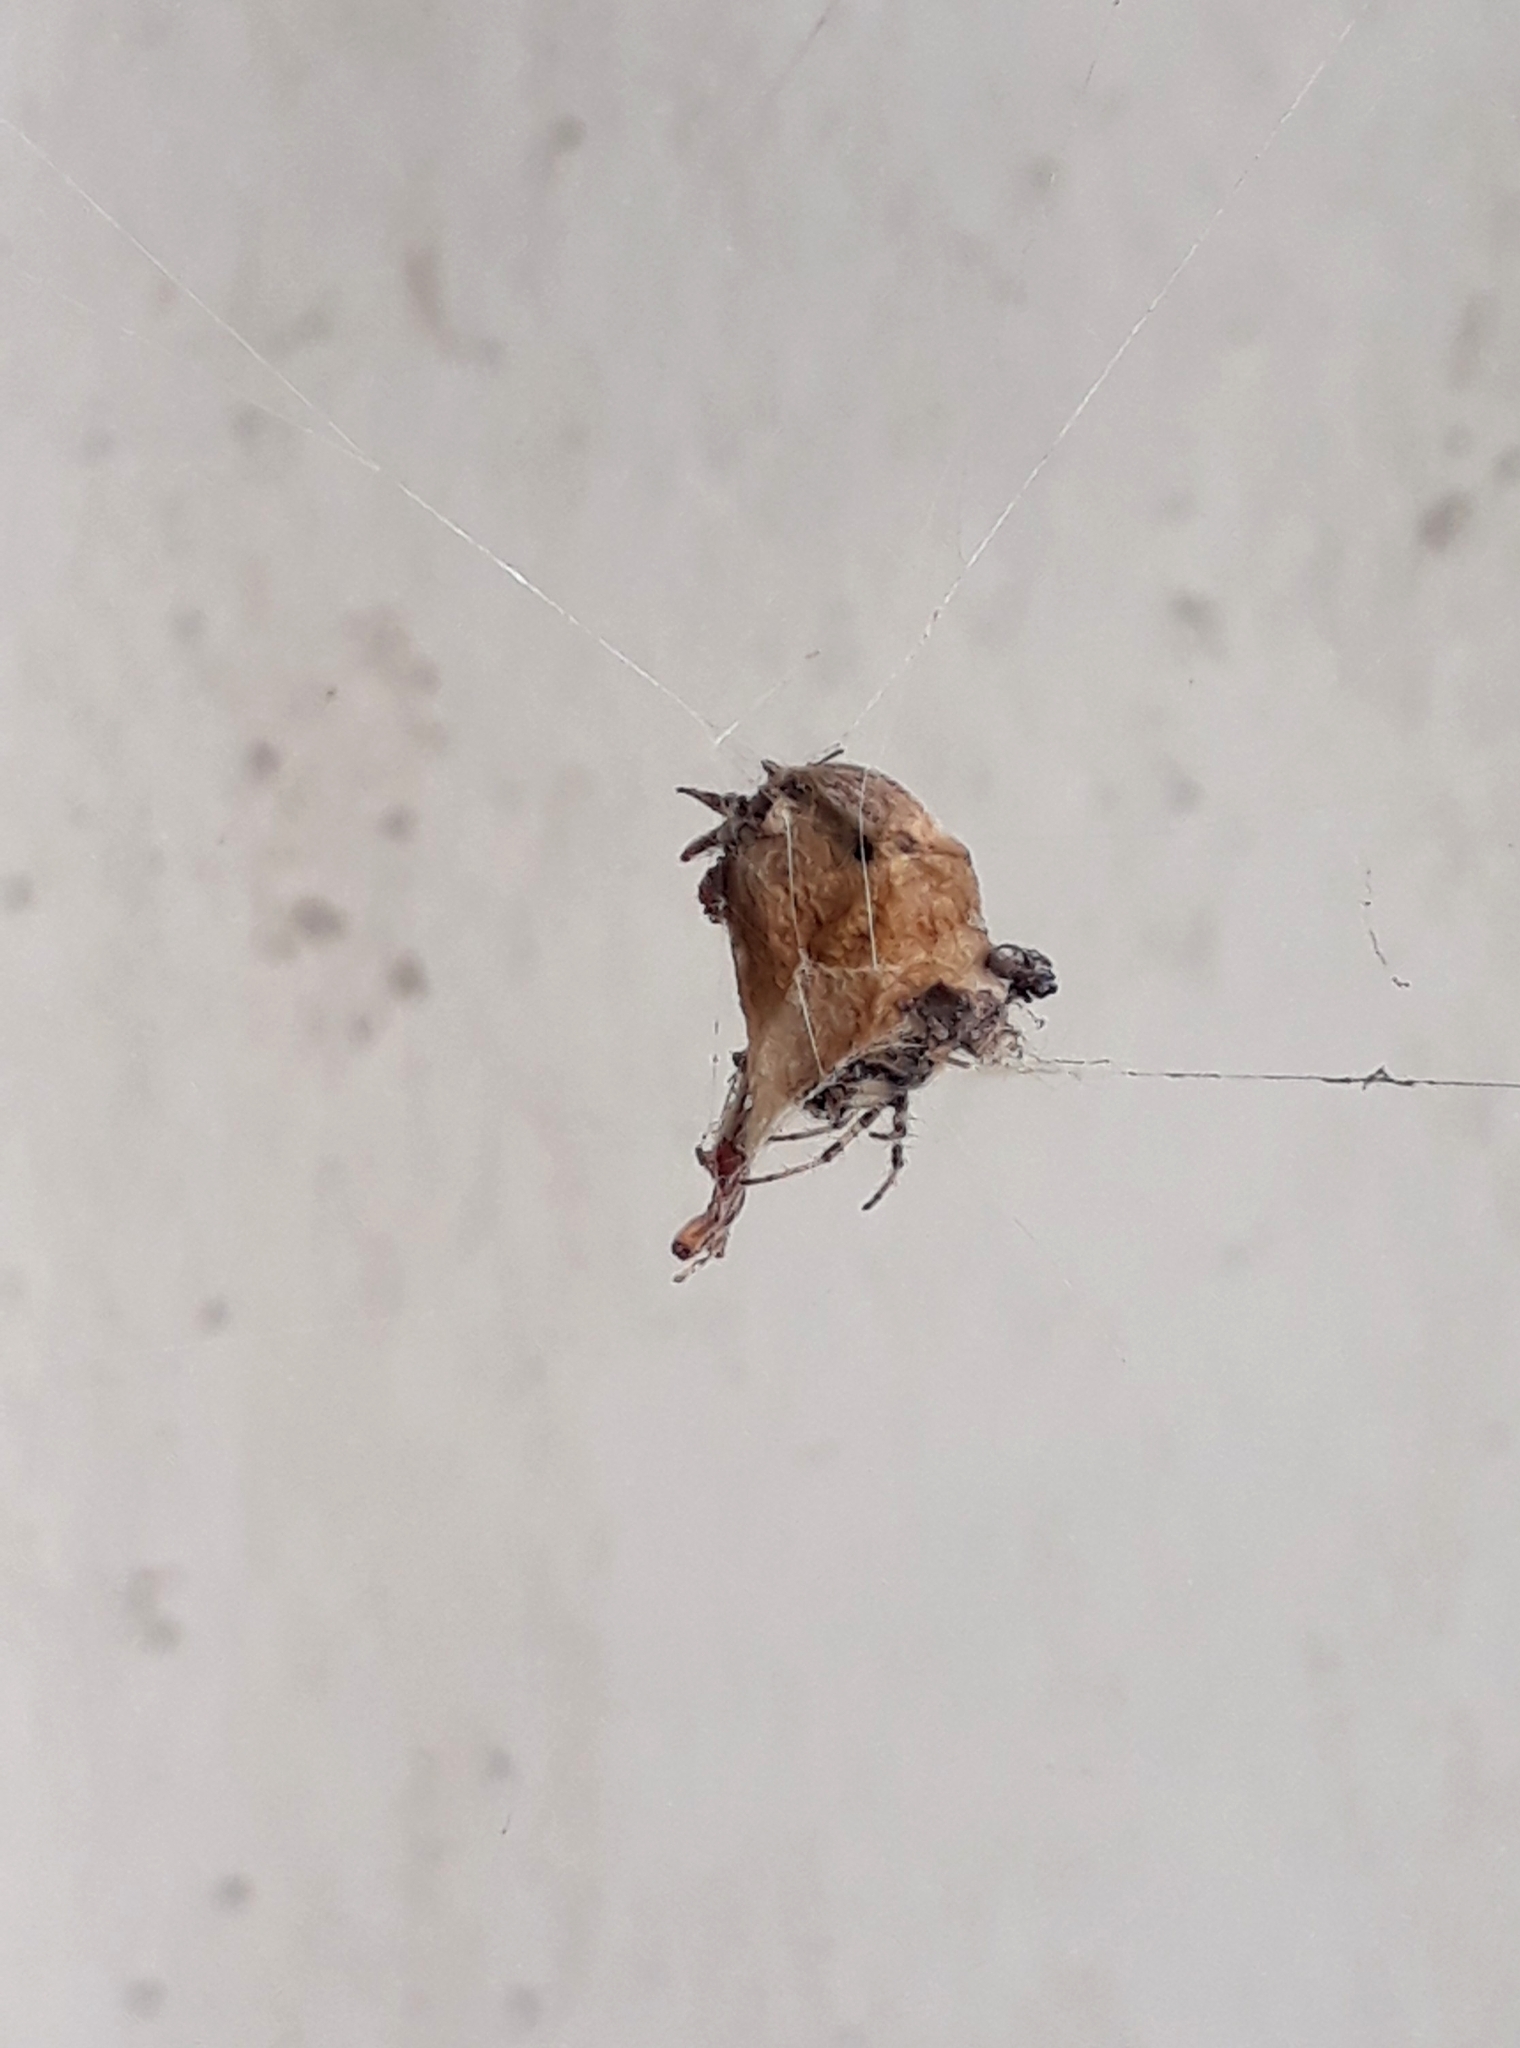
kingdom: Animalia
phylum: Arthropoda
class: Arachnida
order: Araneae
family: Araneidae
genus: Metepeira
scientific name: Metepeira
